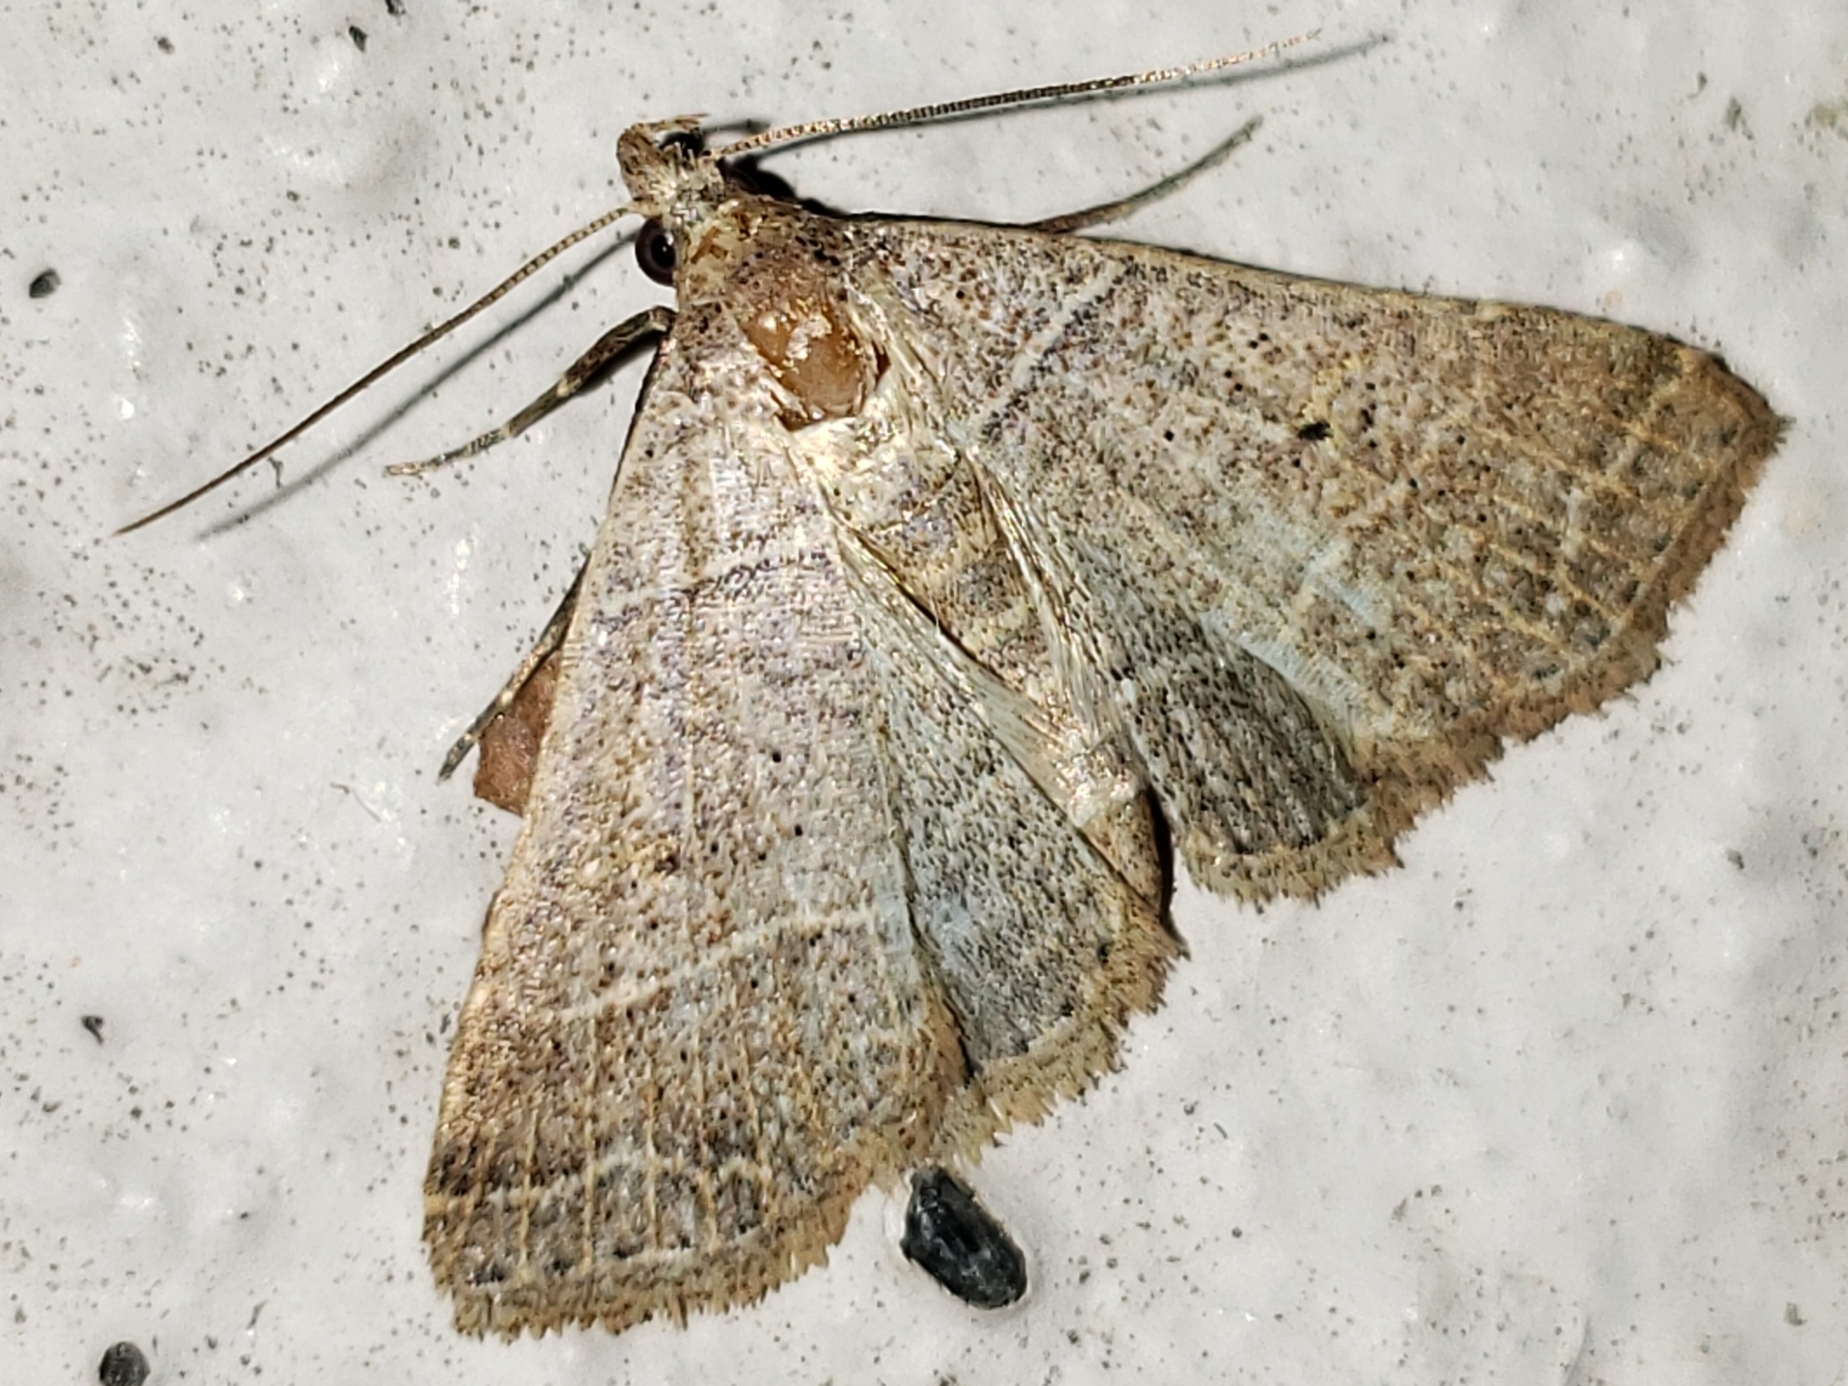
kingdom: Animalia
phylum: Arthropoda
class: Insecta
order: Lepidoptera
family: Erebidae
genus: Bleptina
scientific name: Bleptina flavivena
